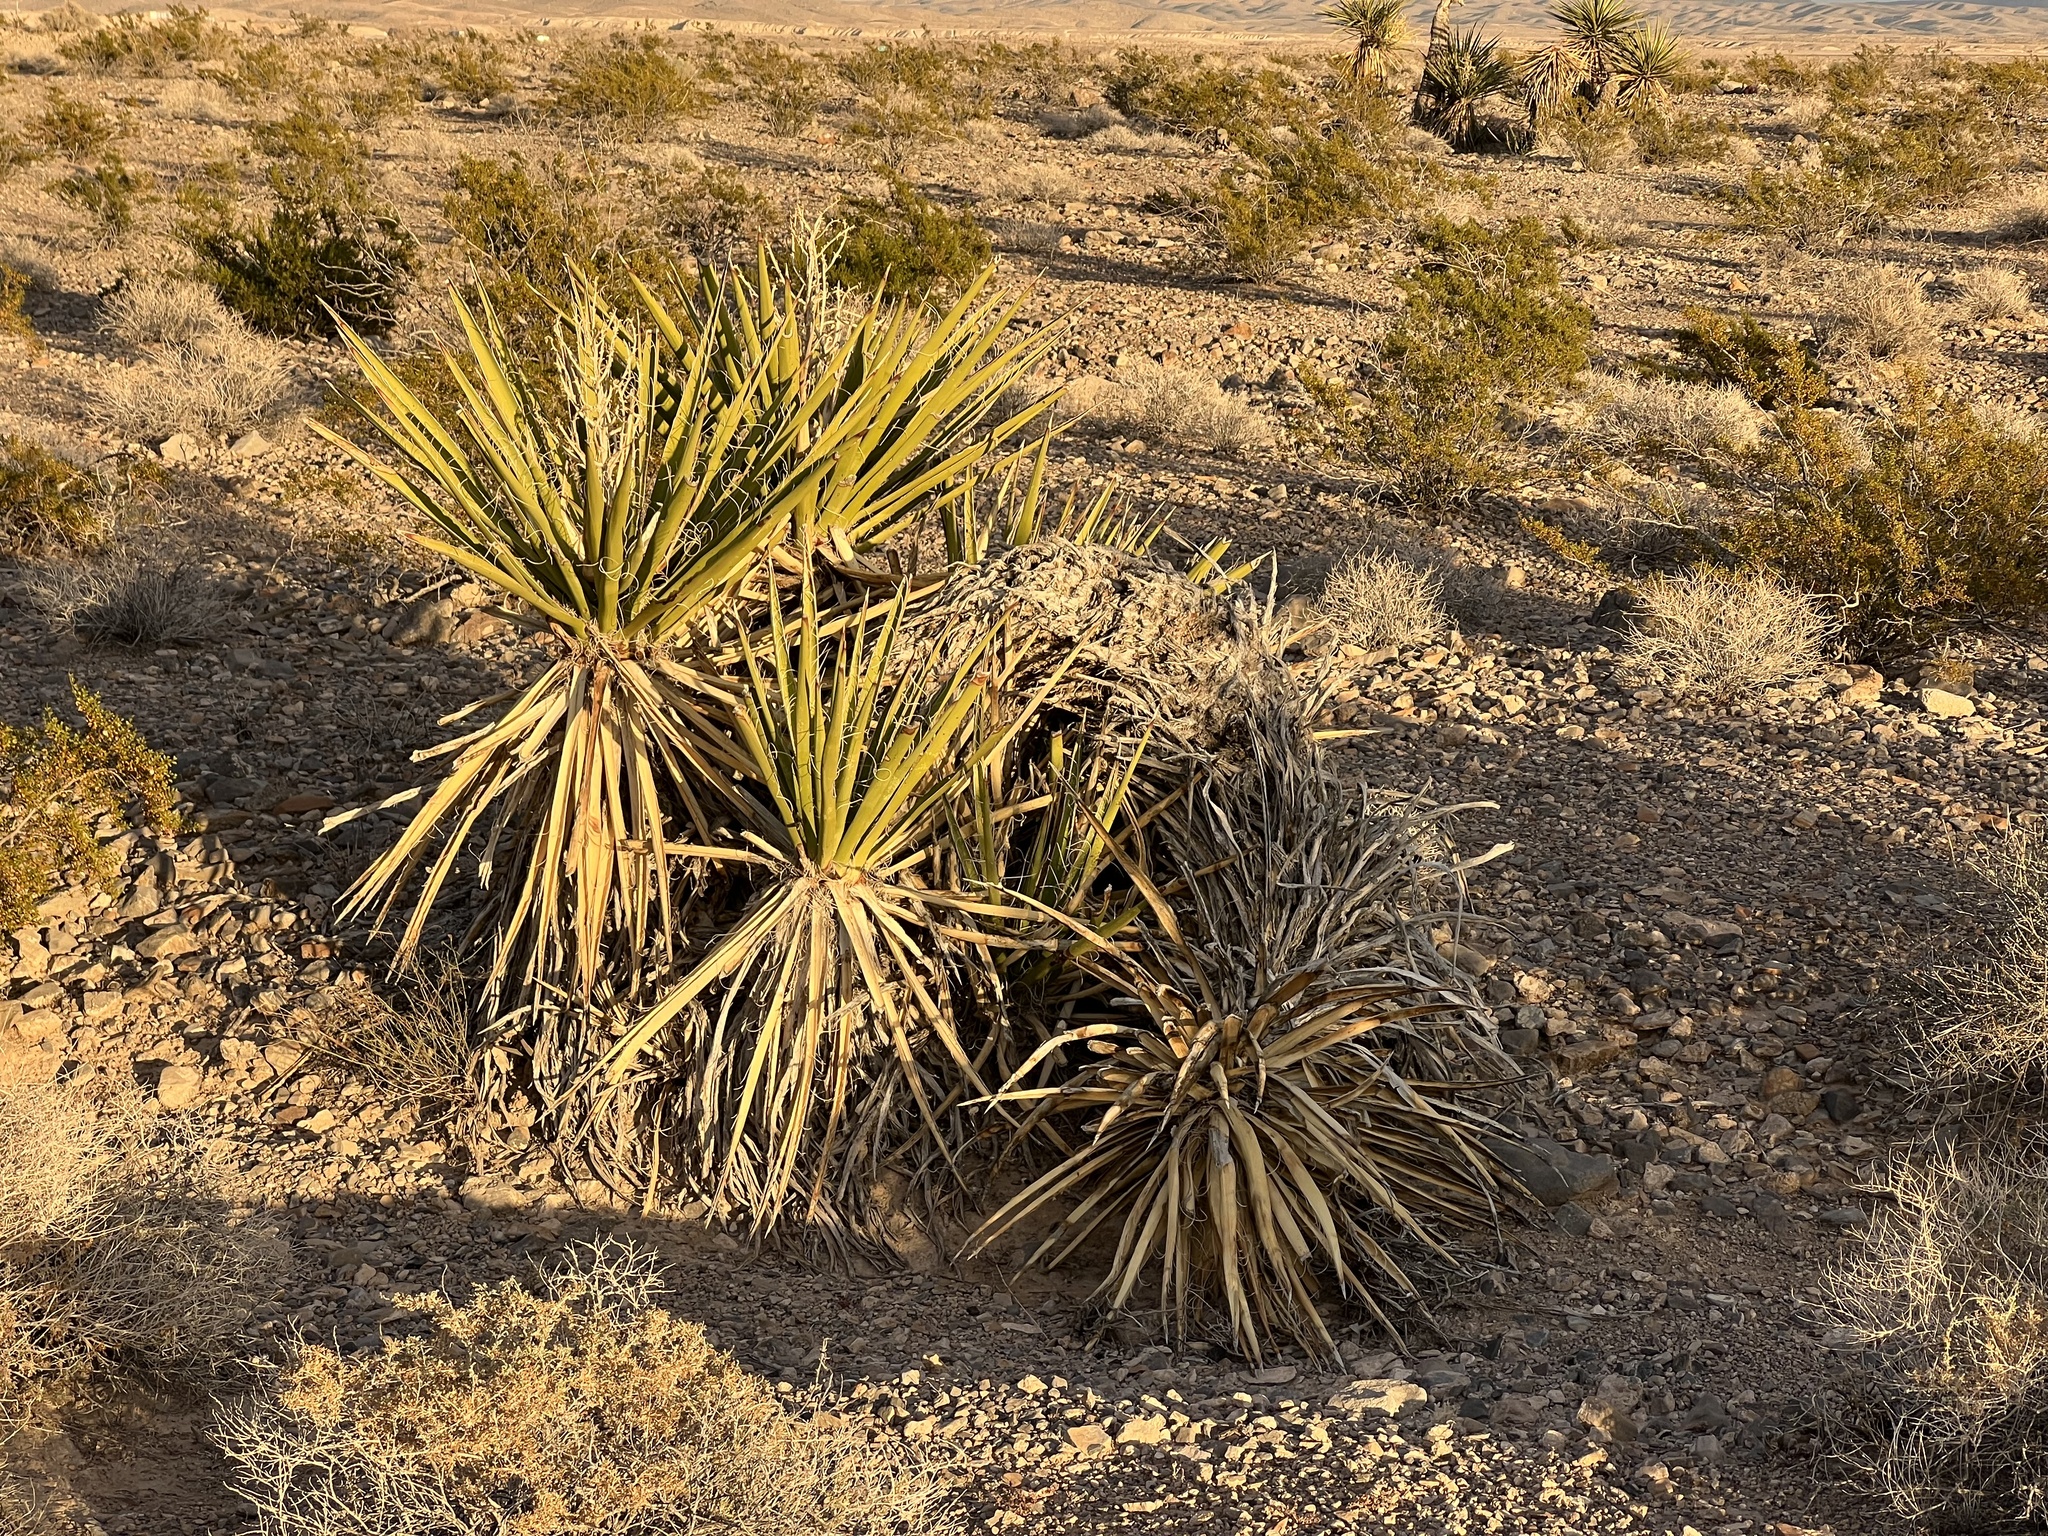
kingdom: Plantae
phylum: Tracheophyta
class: Liliopsida
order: Asparagales
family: Asparagaceae
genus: Yucca
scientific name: Yucca schidigera
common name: Mojave yucca
